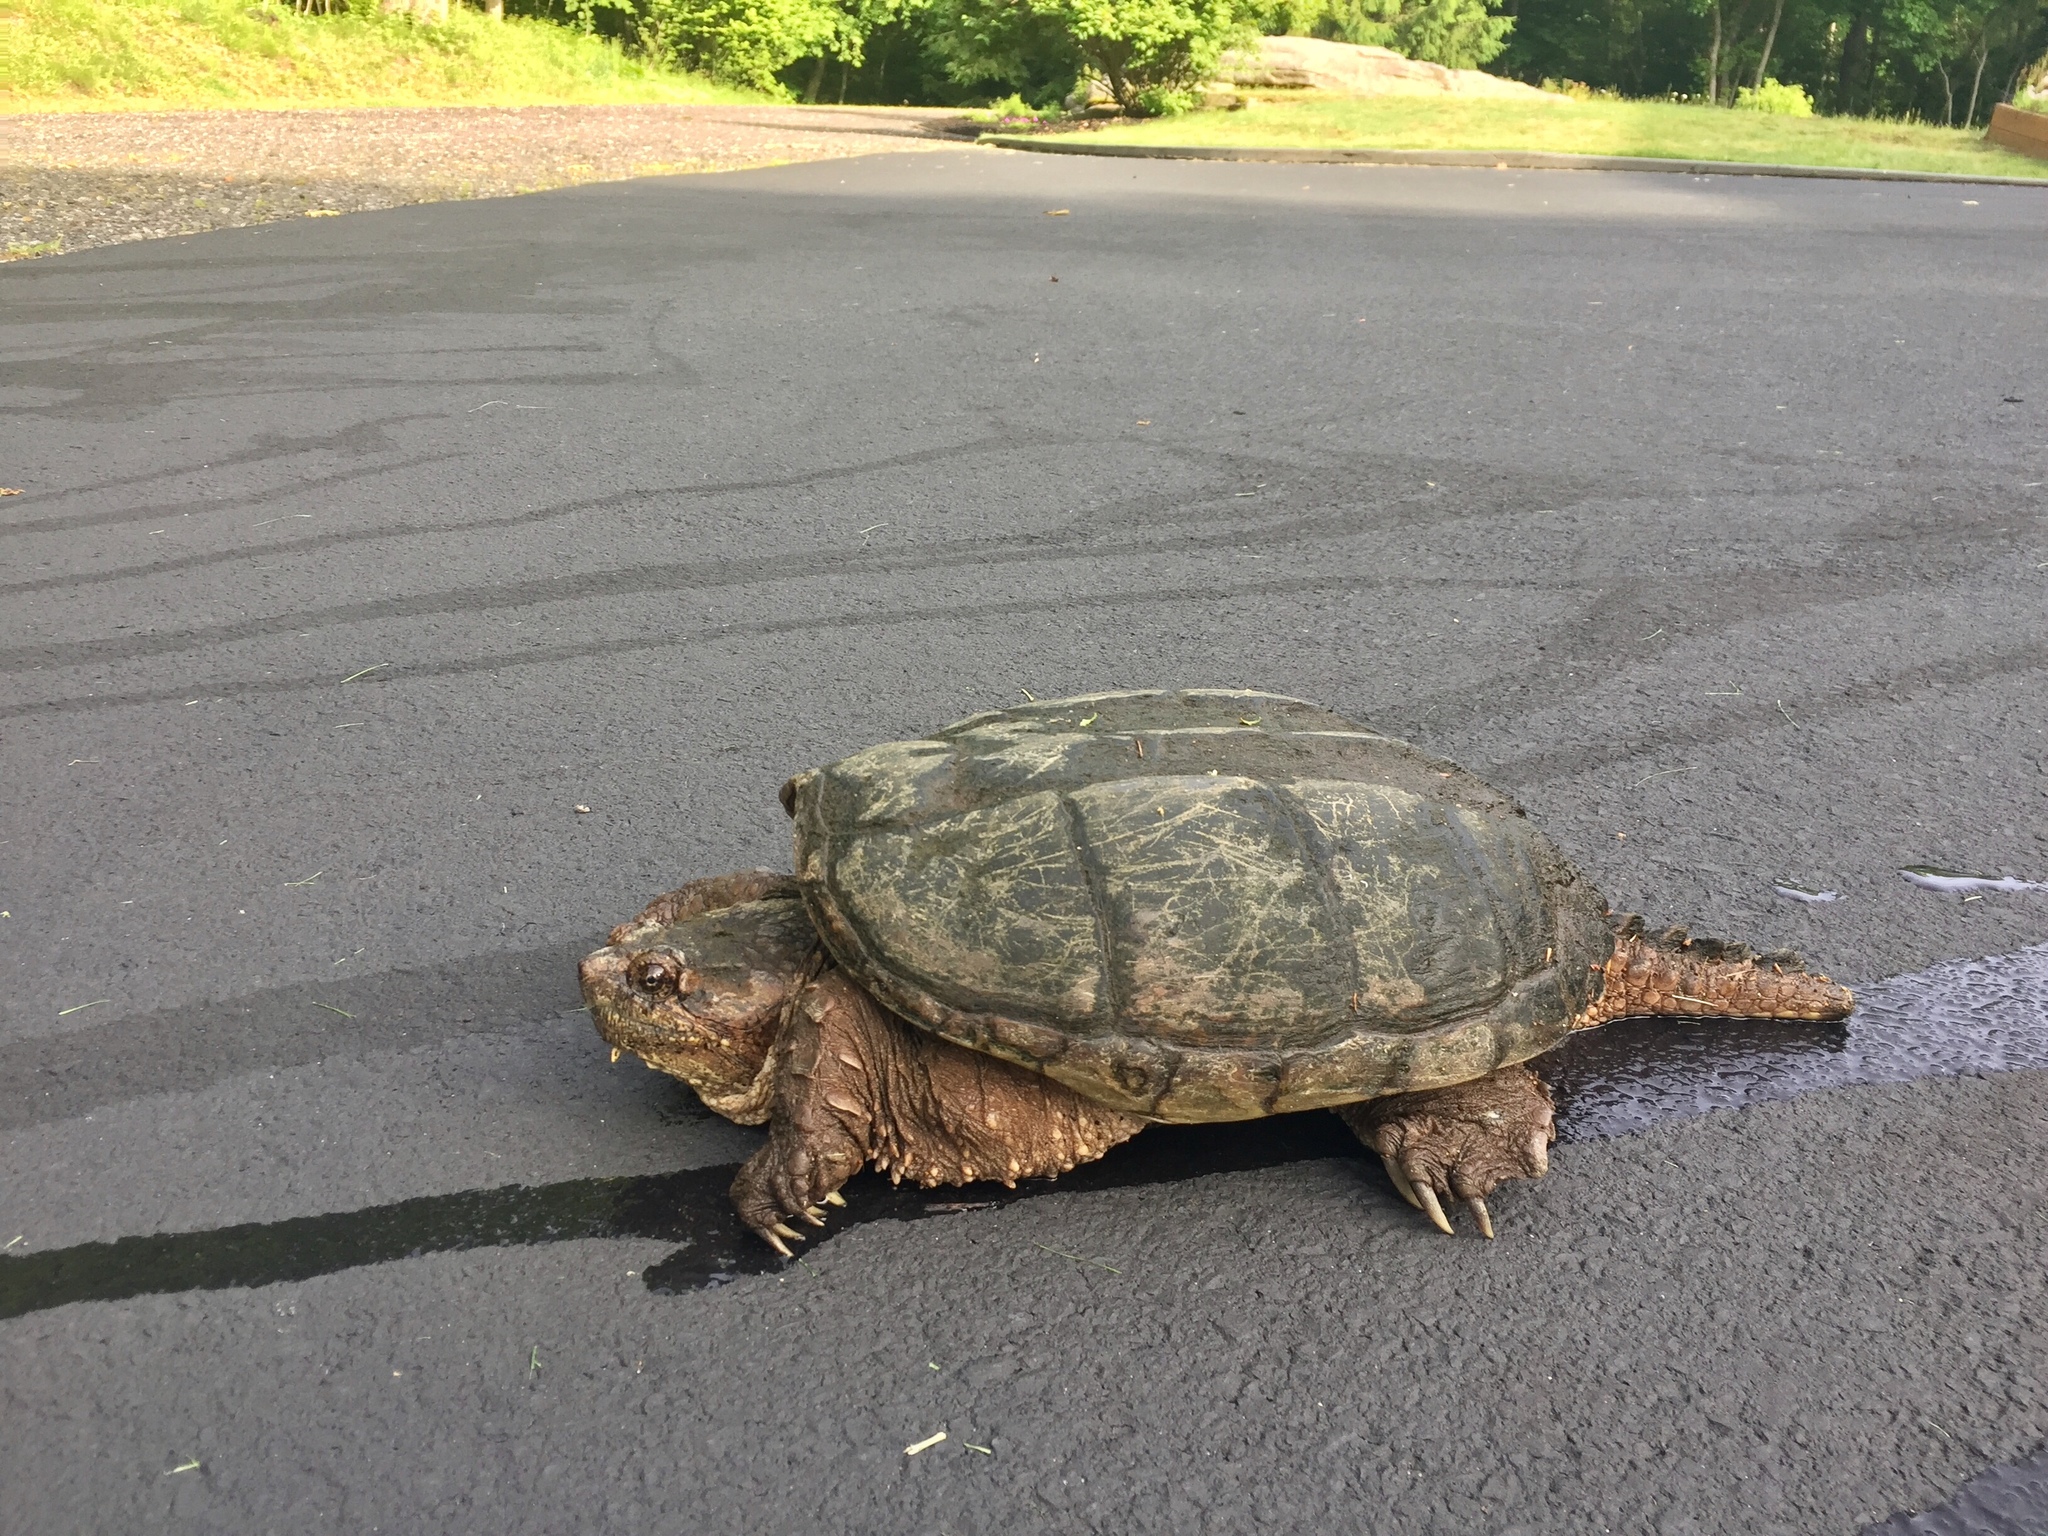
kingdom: Animalia
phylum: Chordata
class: Testudines
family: Chelydridae
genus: Chelydra
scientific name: Chelydra serpentina
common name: Common snapping turtle
